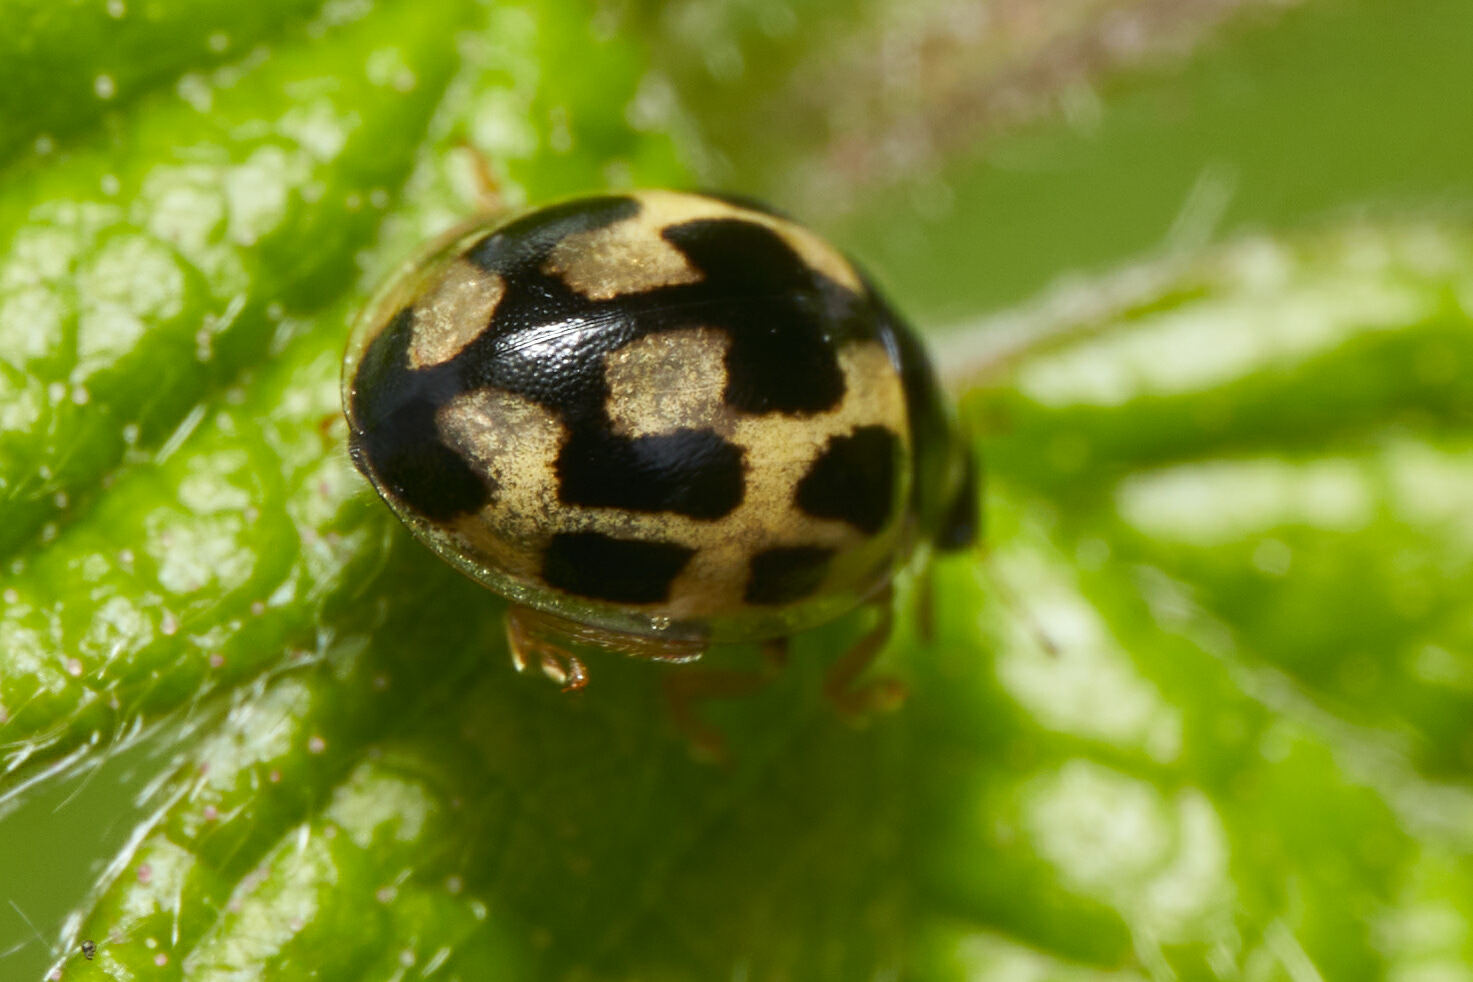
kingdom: Animalia
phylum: Arthropoda
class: Insecta
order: Coleoptera
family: Coccinellidae
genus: Propylaea
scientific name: Propylaea quatuordecimpunctata
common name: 14-spotted ladybird beetle
